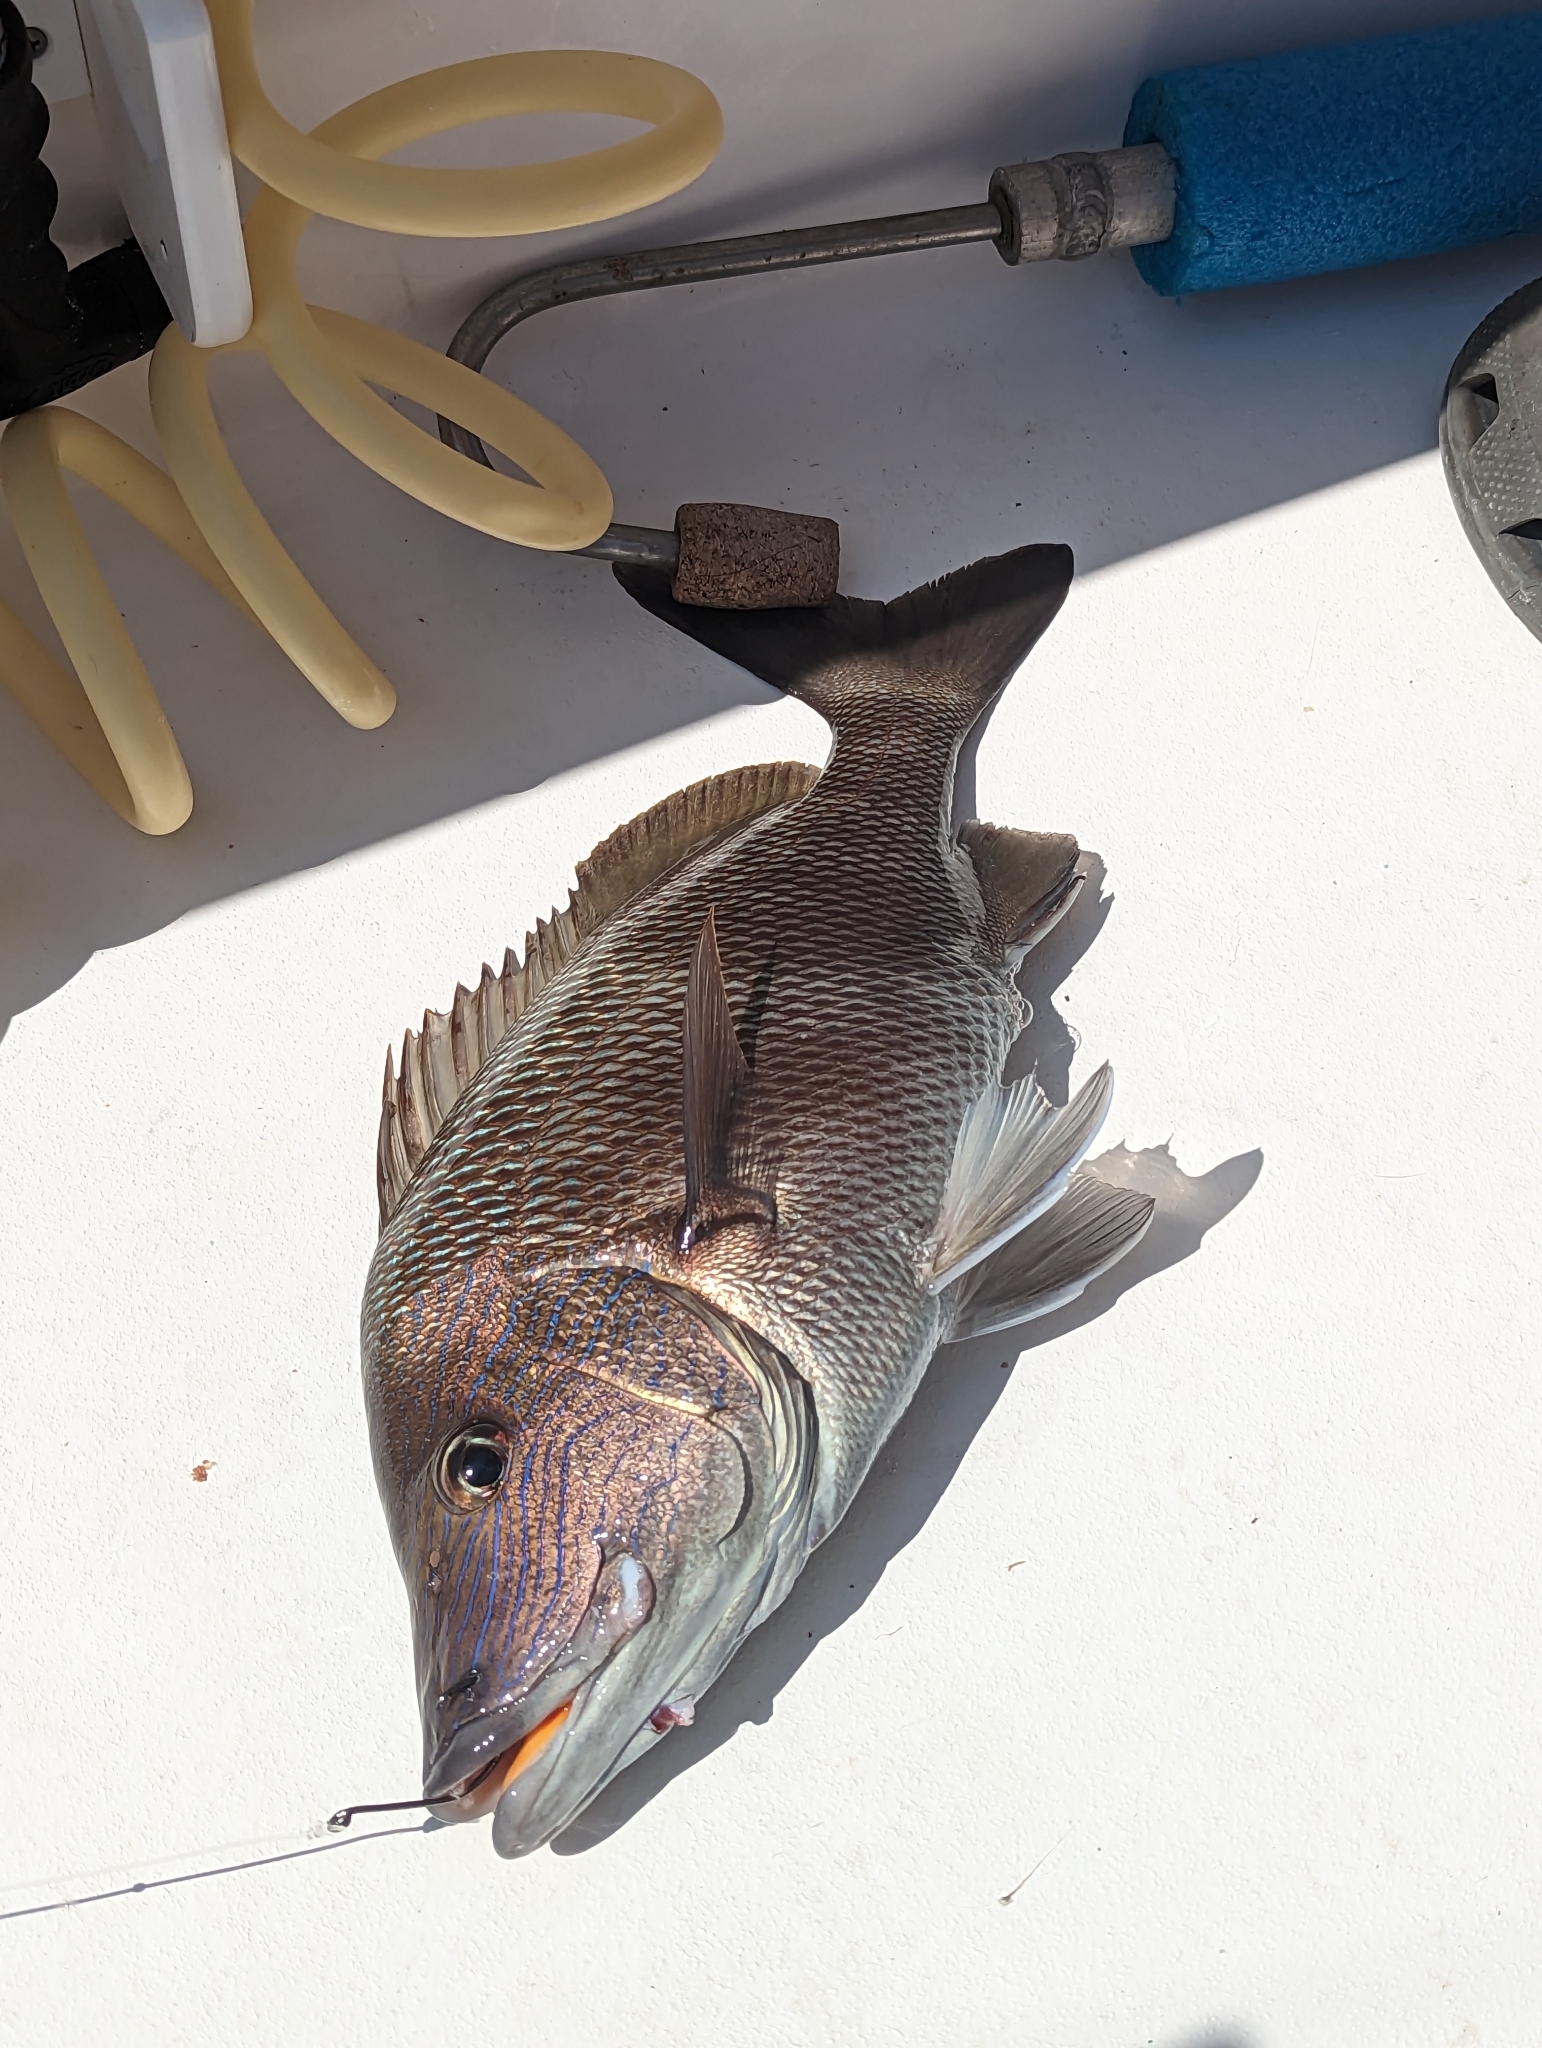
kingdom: Animalia
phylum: Chordata
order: Perciformes
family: Haemulidae
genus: Haemulon
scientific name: Haemulon plumierii
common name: White grunt
